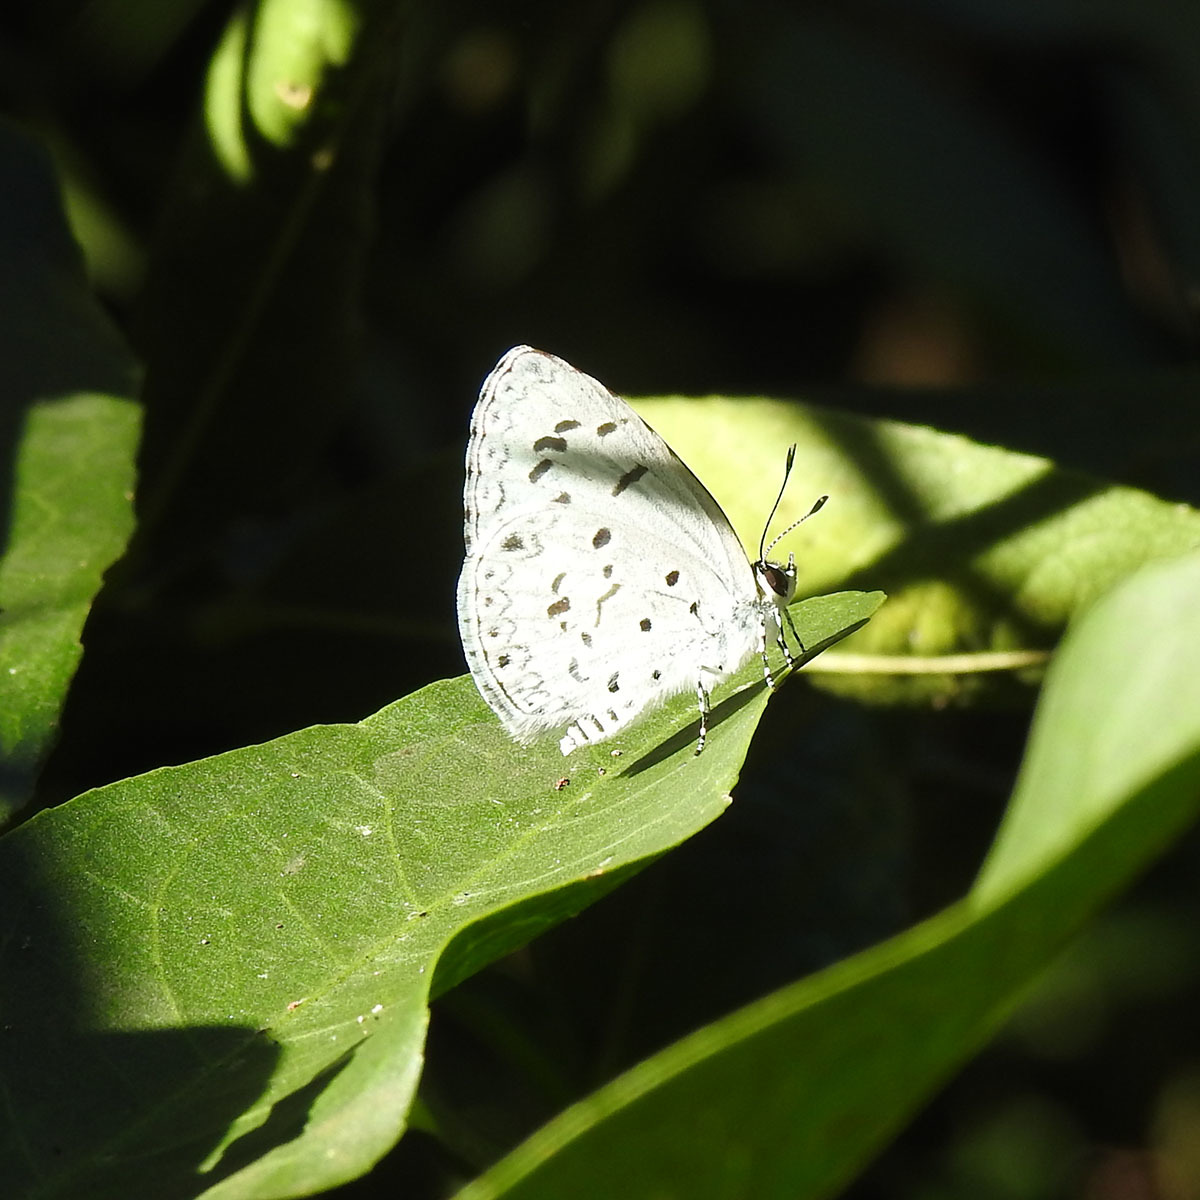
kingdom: Animalia
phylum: Arthropoda
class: Insecta
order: Lepidoptera
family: Lycaenidae
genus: Acytolepis
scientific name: Acytolepis puspa
